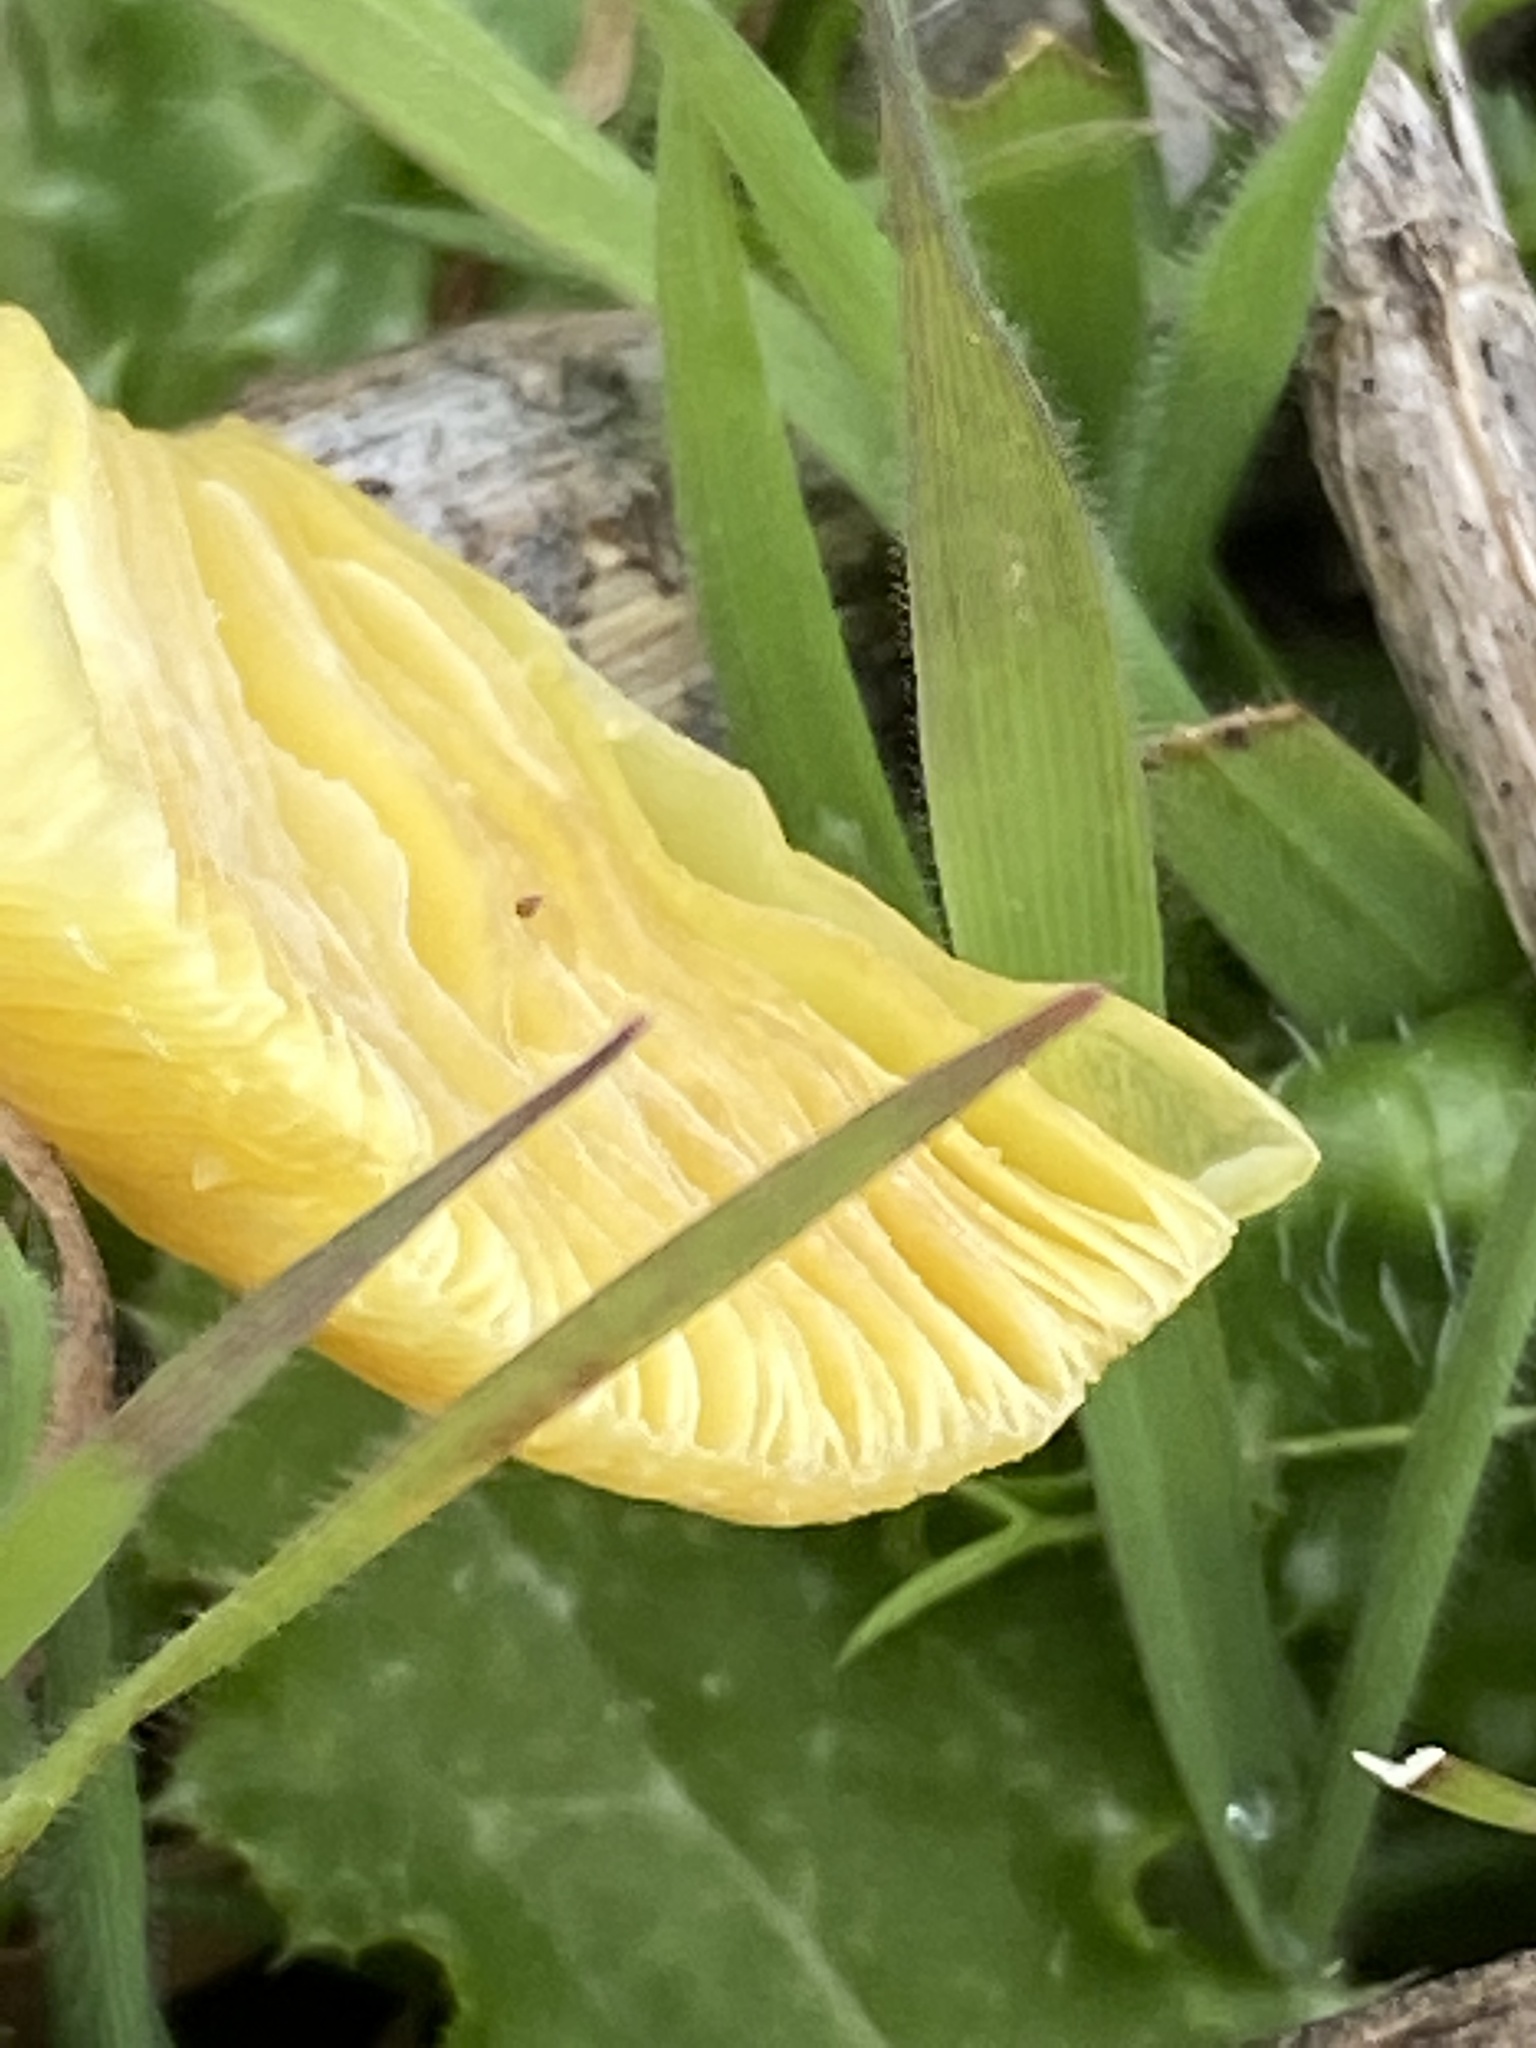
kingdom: Fungi
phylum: Basidiomycota
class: Agaricomycetes
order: Agaricales
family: Bolbitiaceae
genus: Bolbitius
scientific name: Bolbitius titubans
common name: Yellow fieldcap
